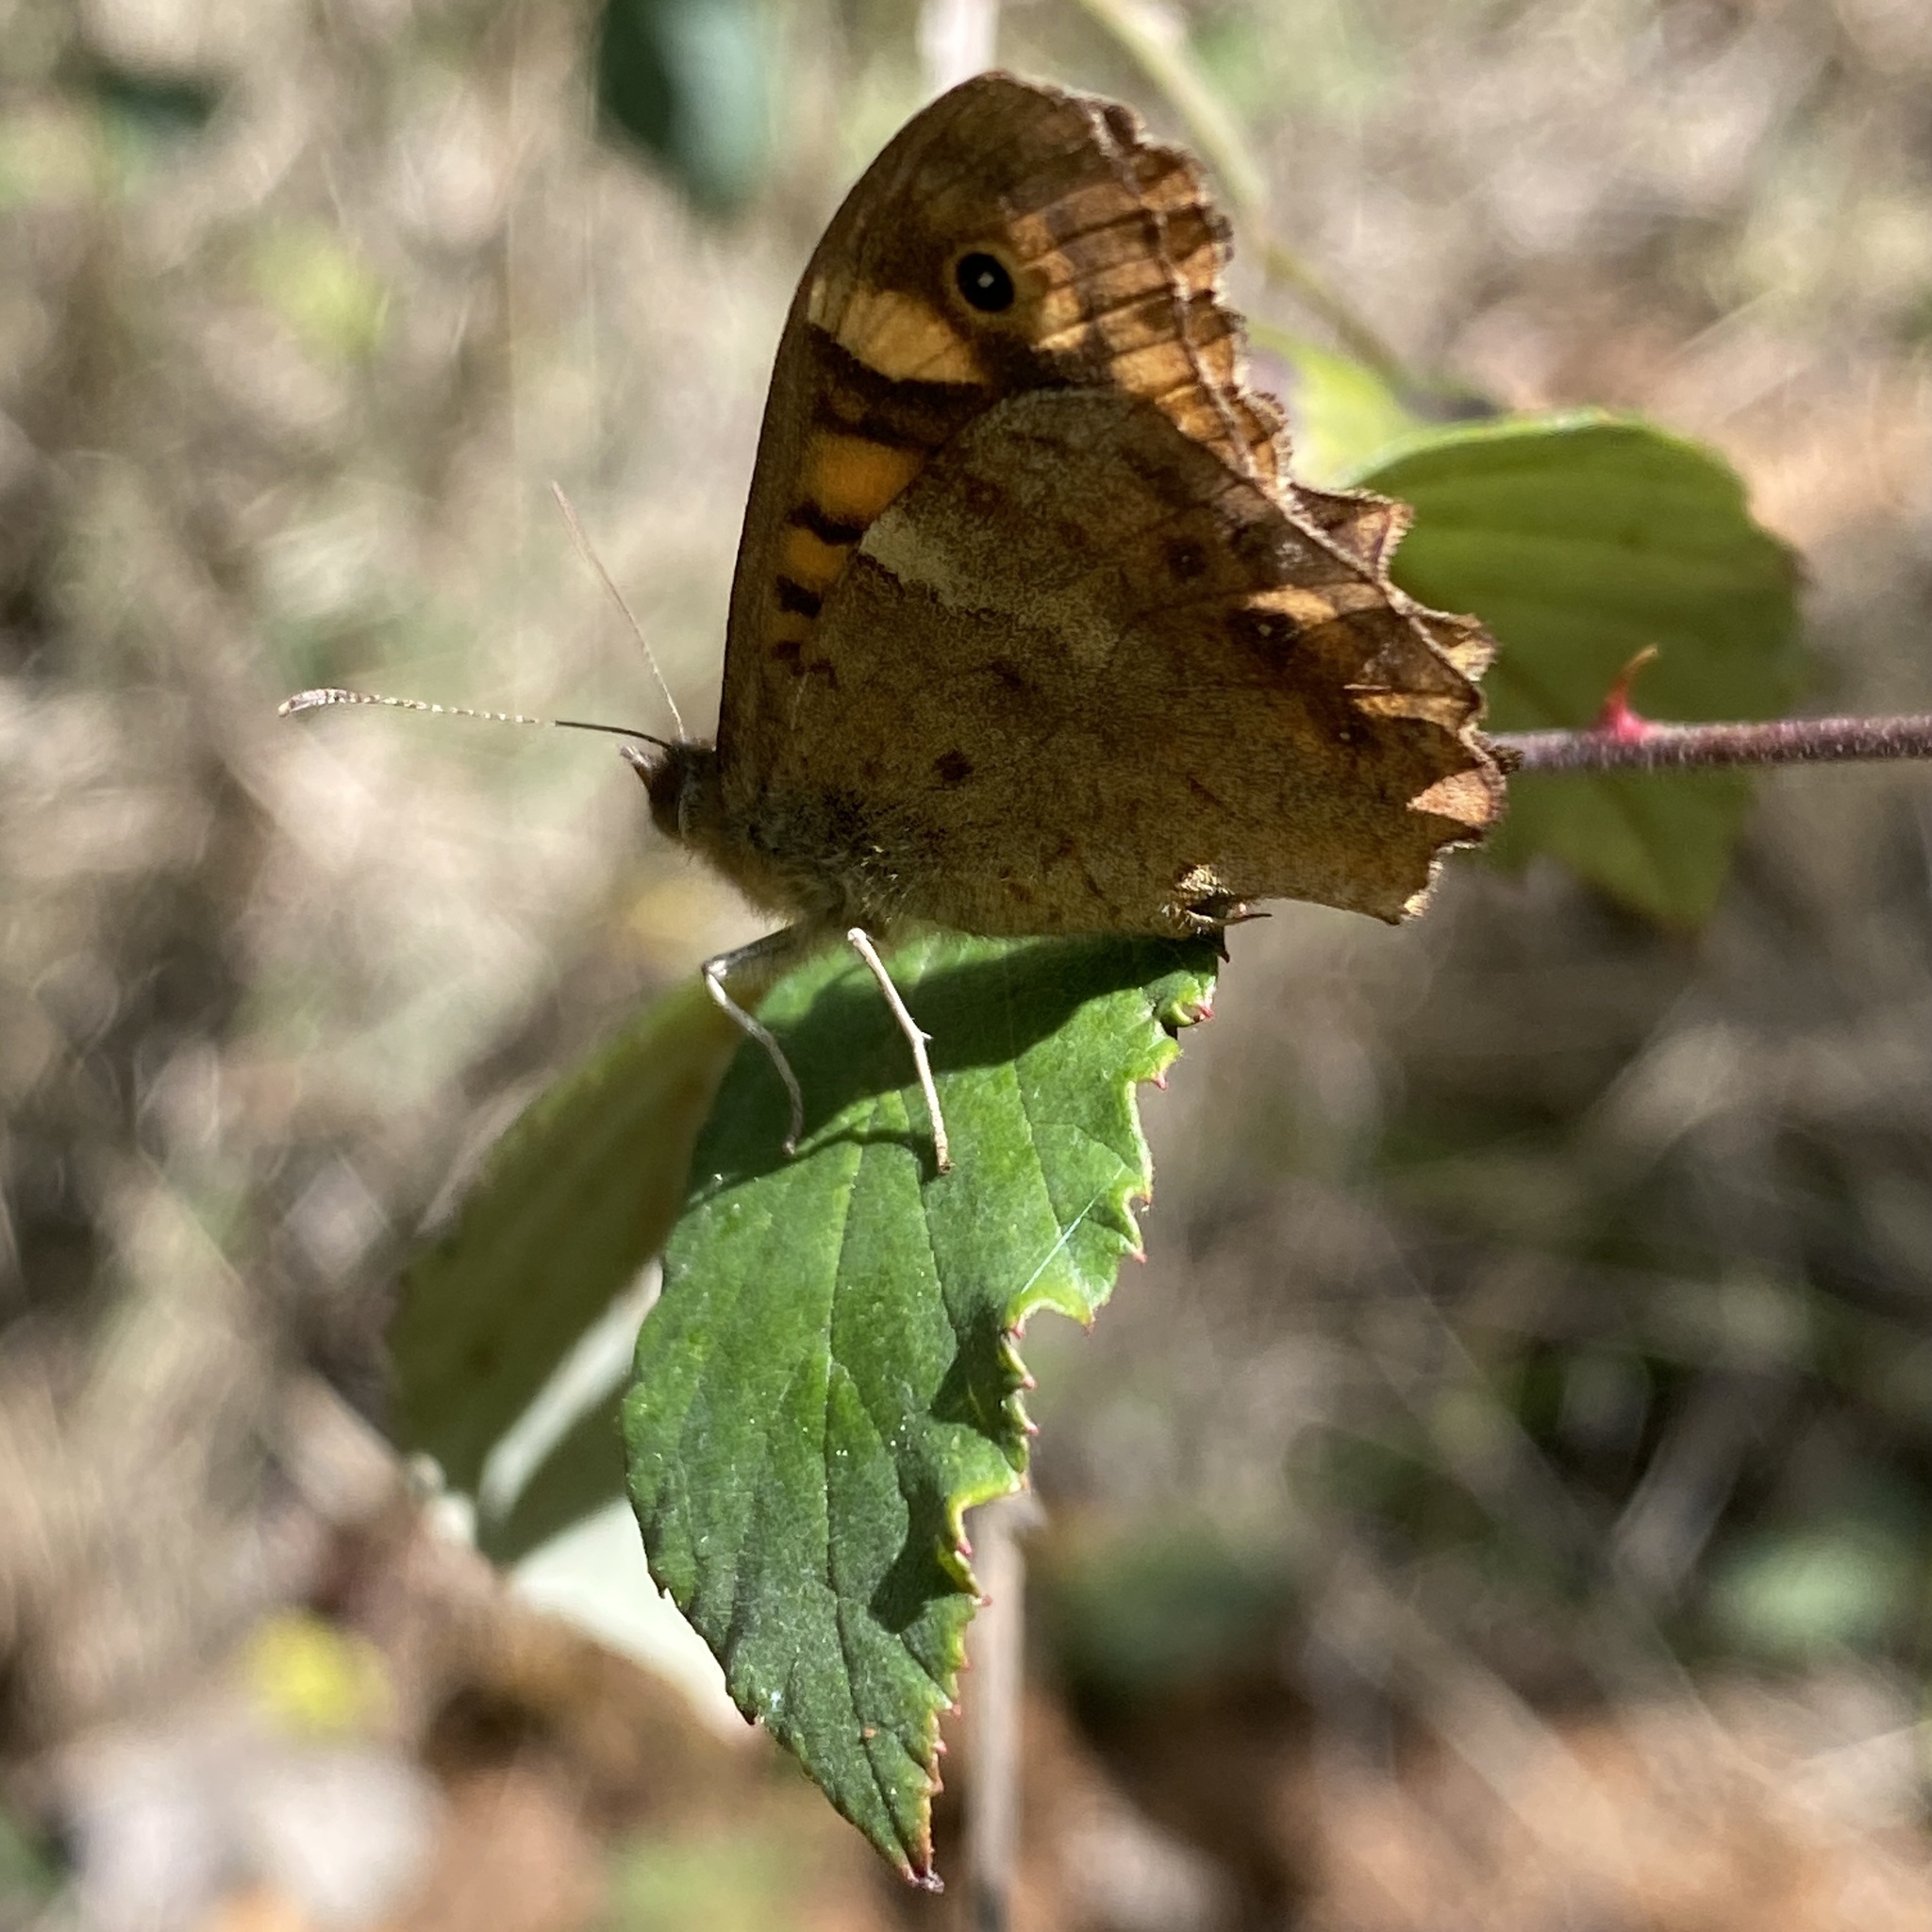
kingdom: Animalia
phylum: Arthropoda
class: Insecta
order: Lepidoptera
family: Nymphalidae
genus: Pararge
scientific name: Pararge aegeria
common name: Speckled wood
